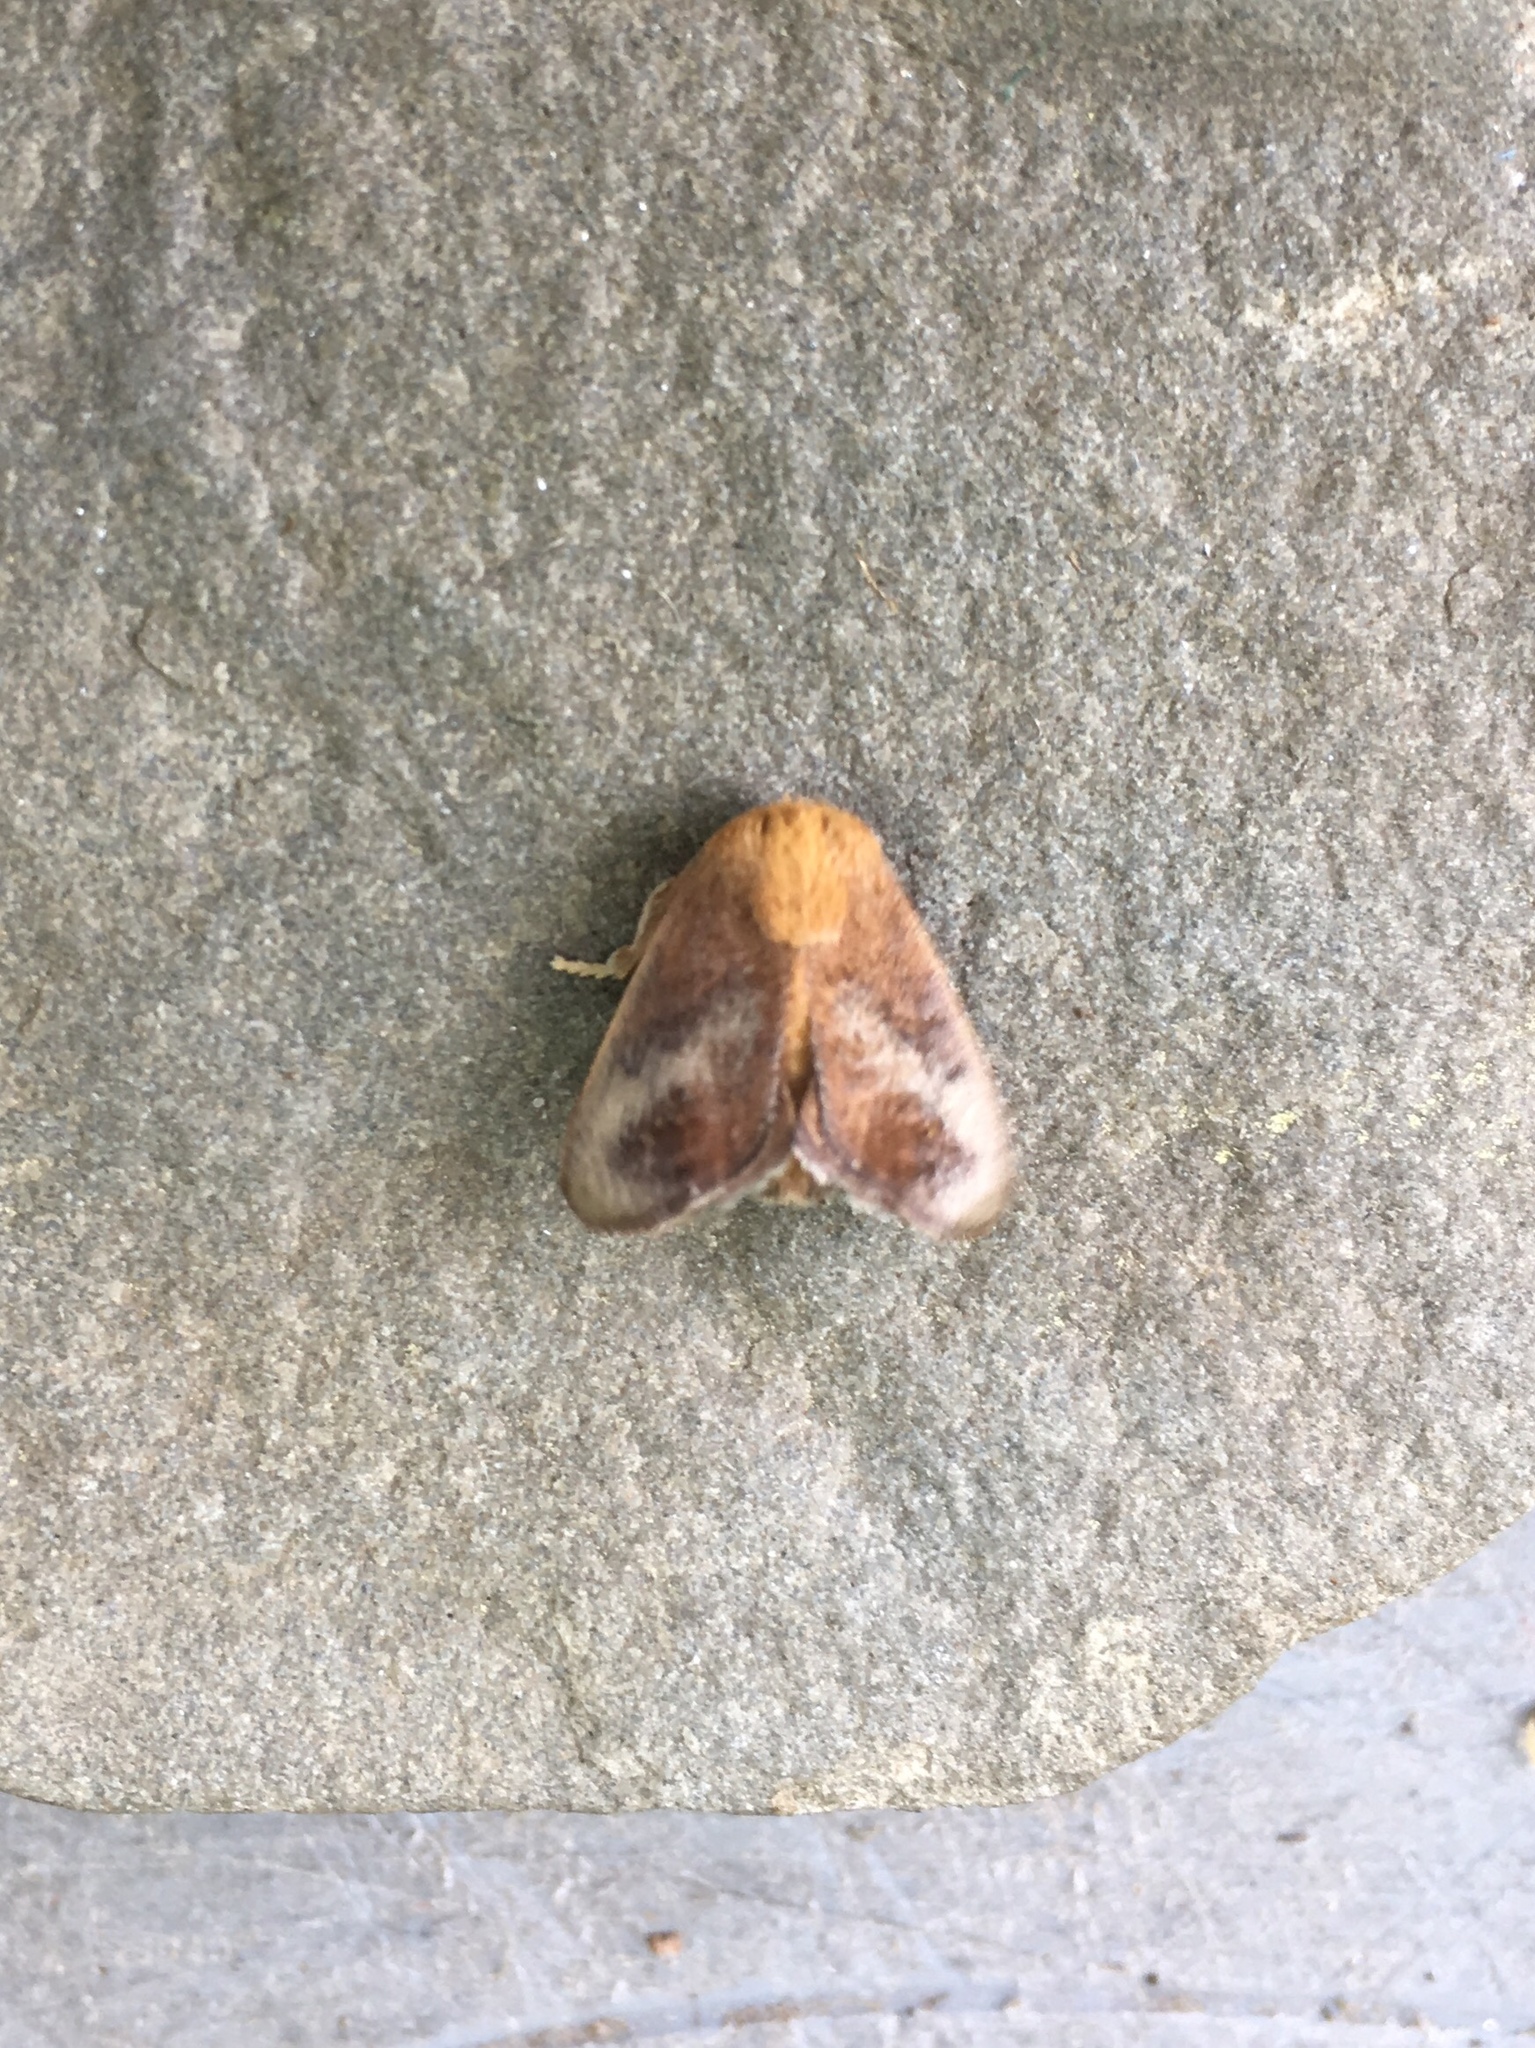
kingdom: Animalia
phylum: Arthropoda
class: Insecta
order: Lepidoptera
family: Limacodidae
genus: Isa
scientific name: Isa textula
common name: Crowned slug moth
